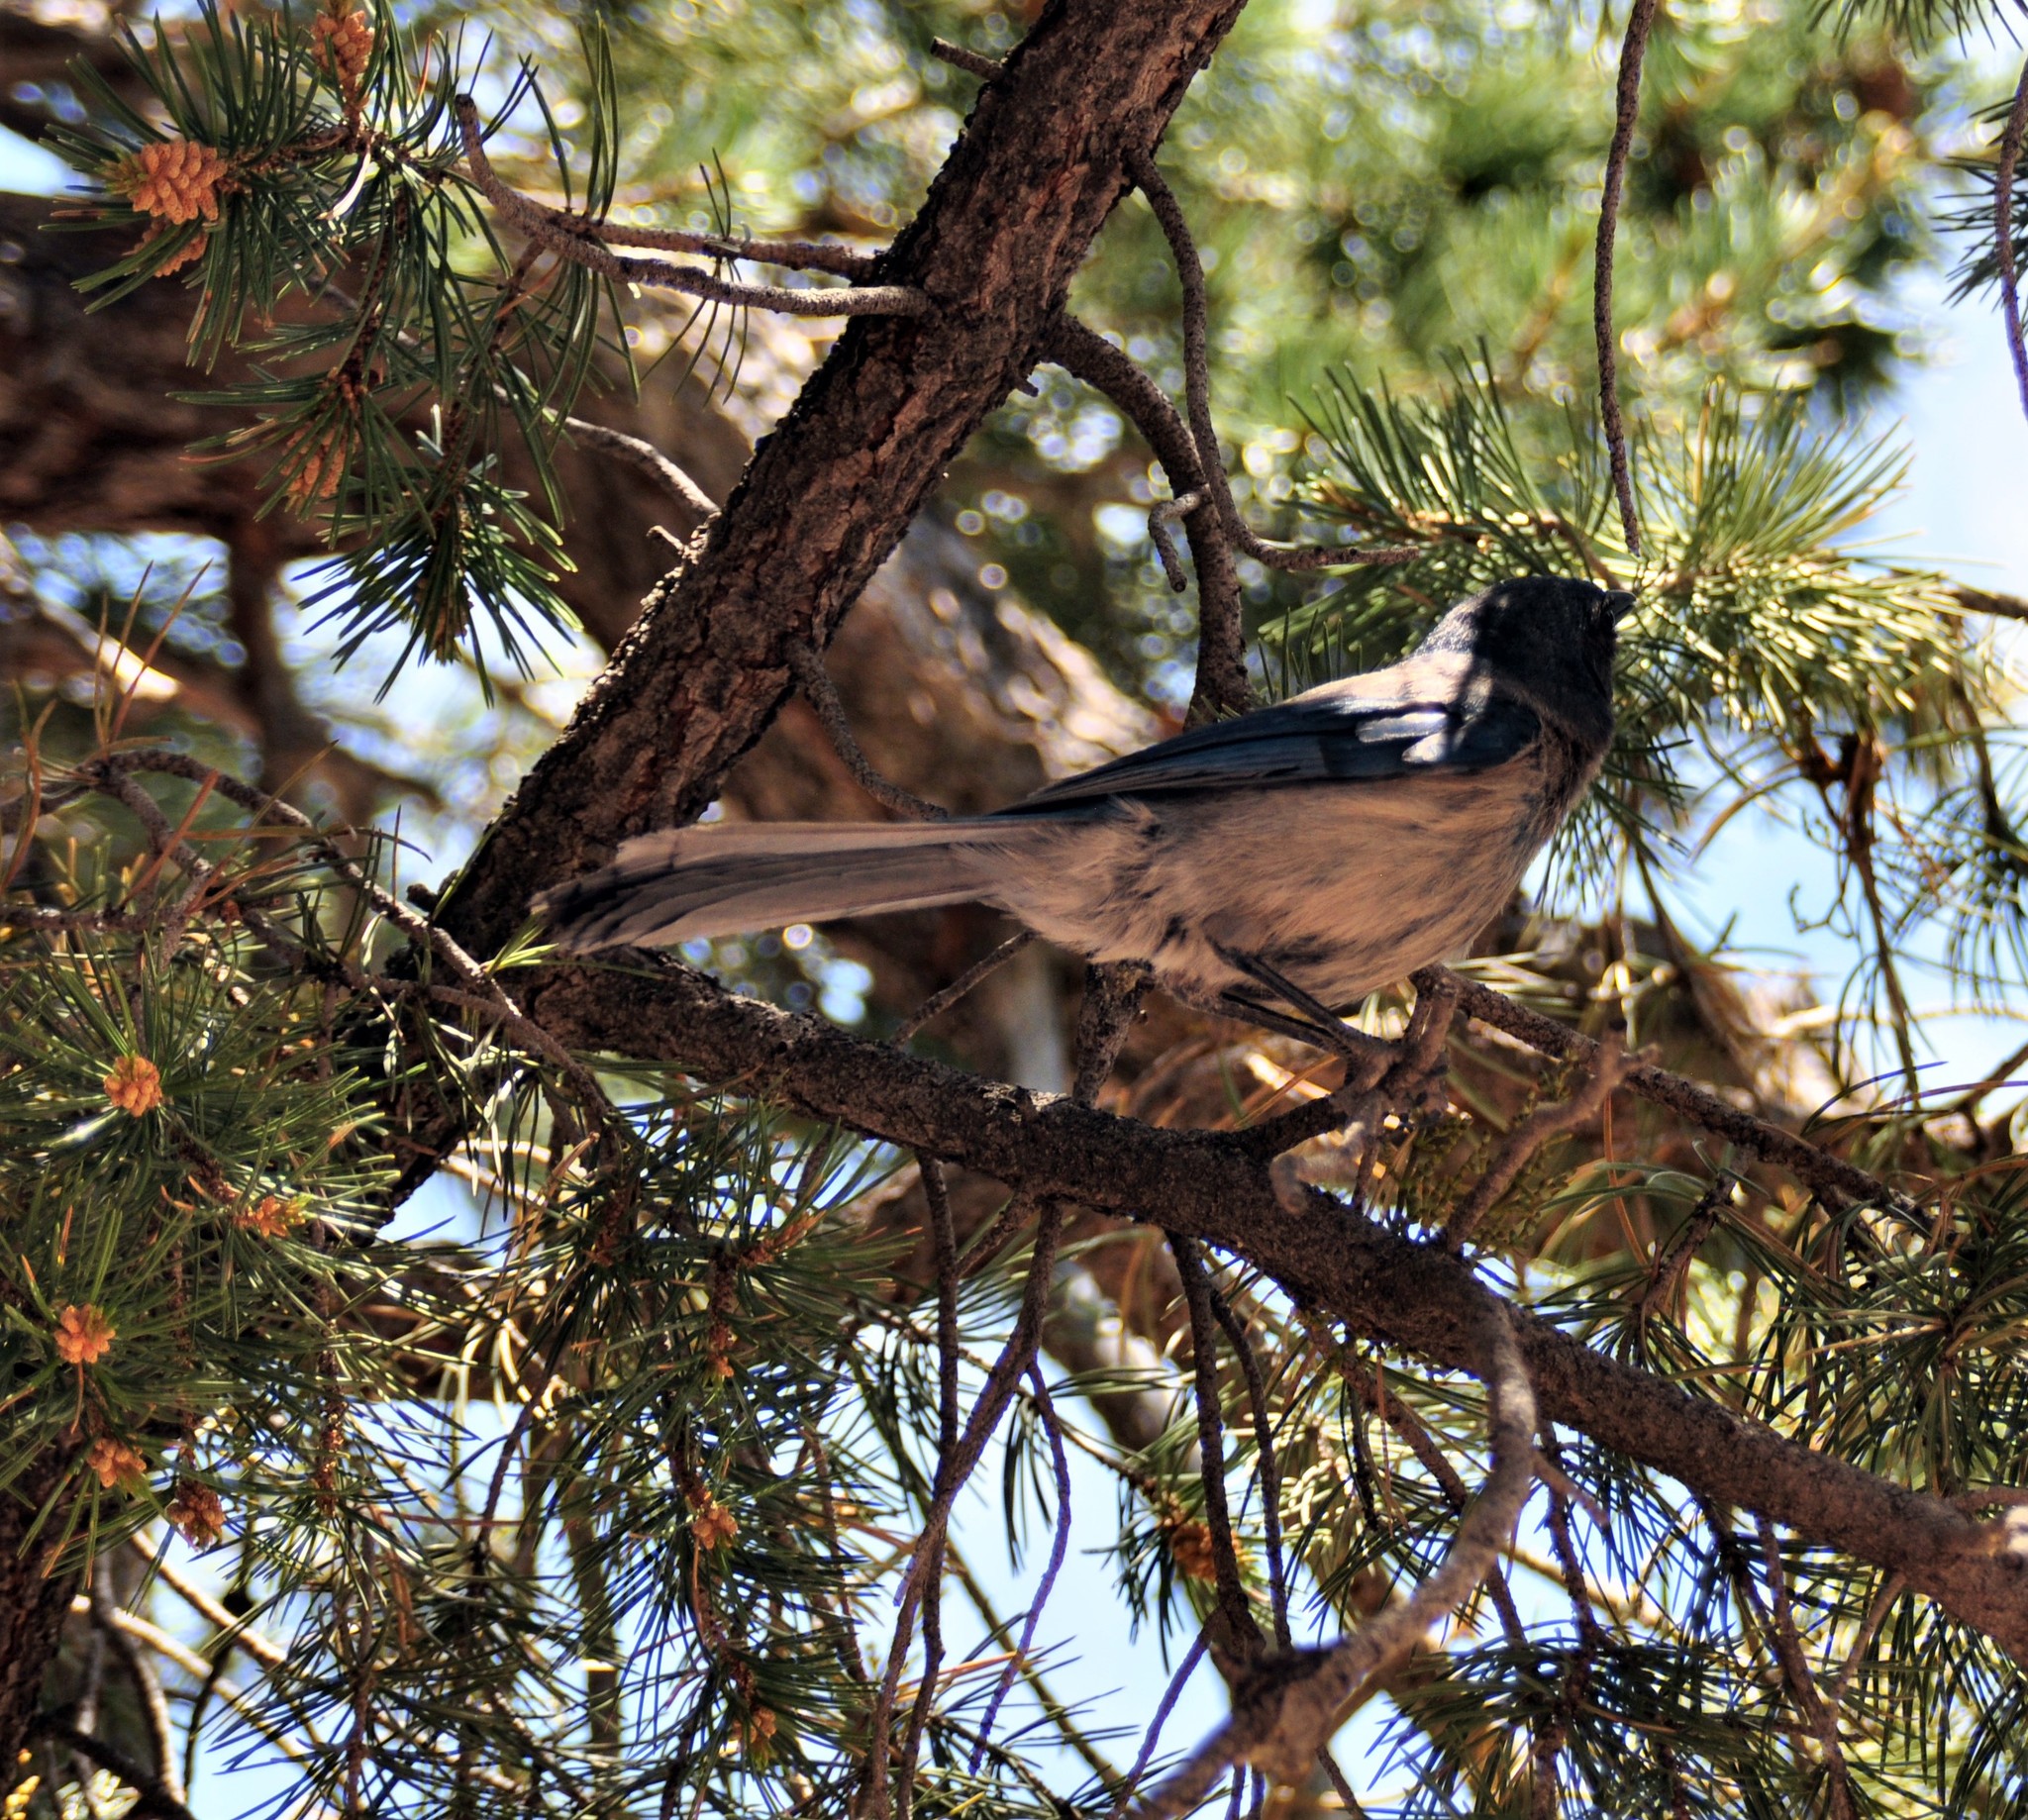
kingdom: Animalia
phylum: Chordata
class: Aves
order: Passeriformes
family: Corvidae
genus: Aphelocoma
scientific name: Aphelocoma woodhouseii
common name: Woodhouse's scrub-jay
